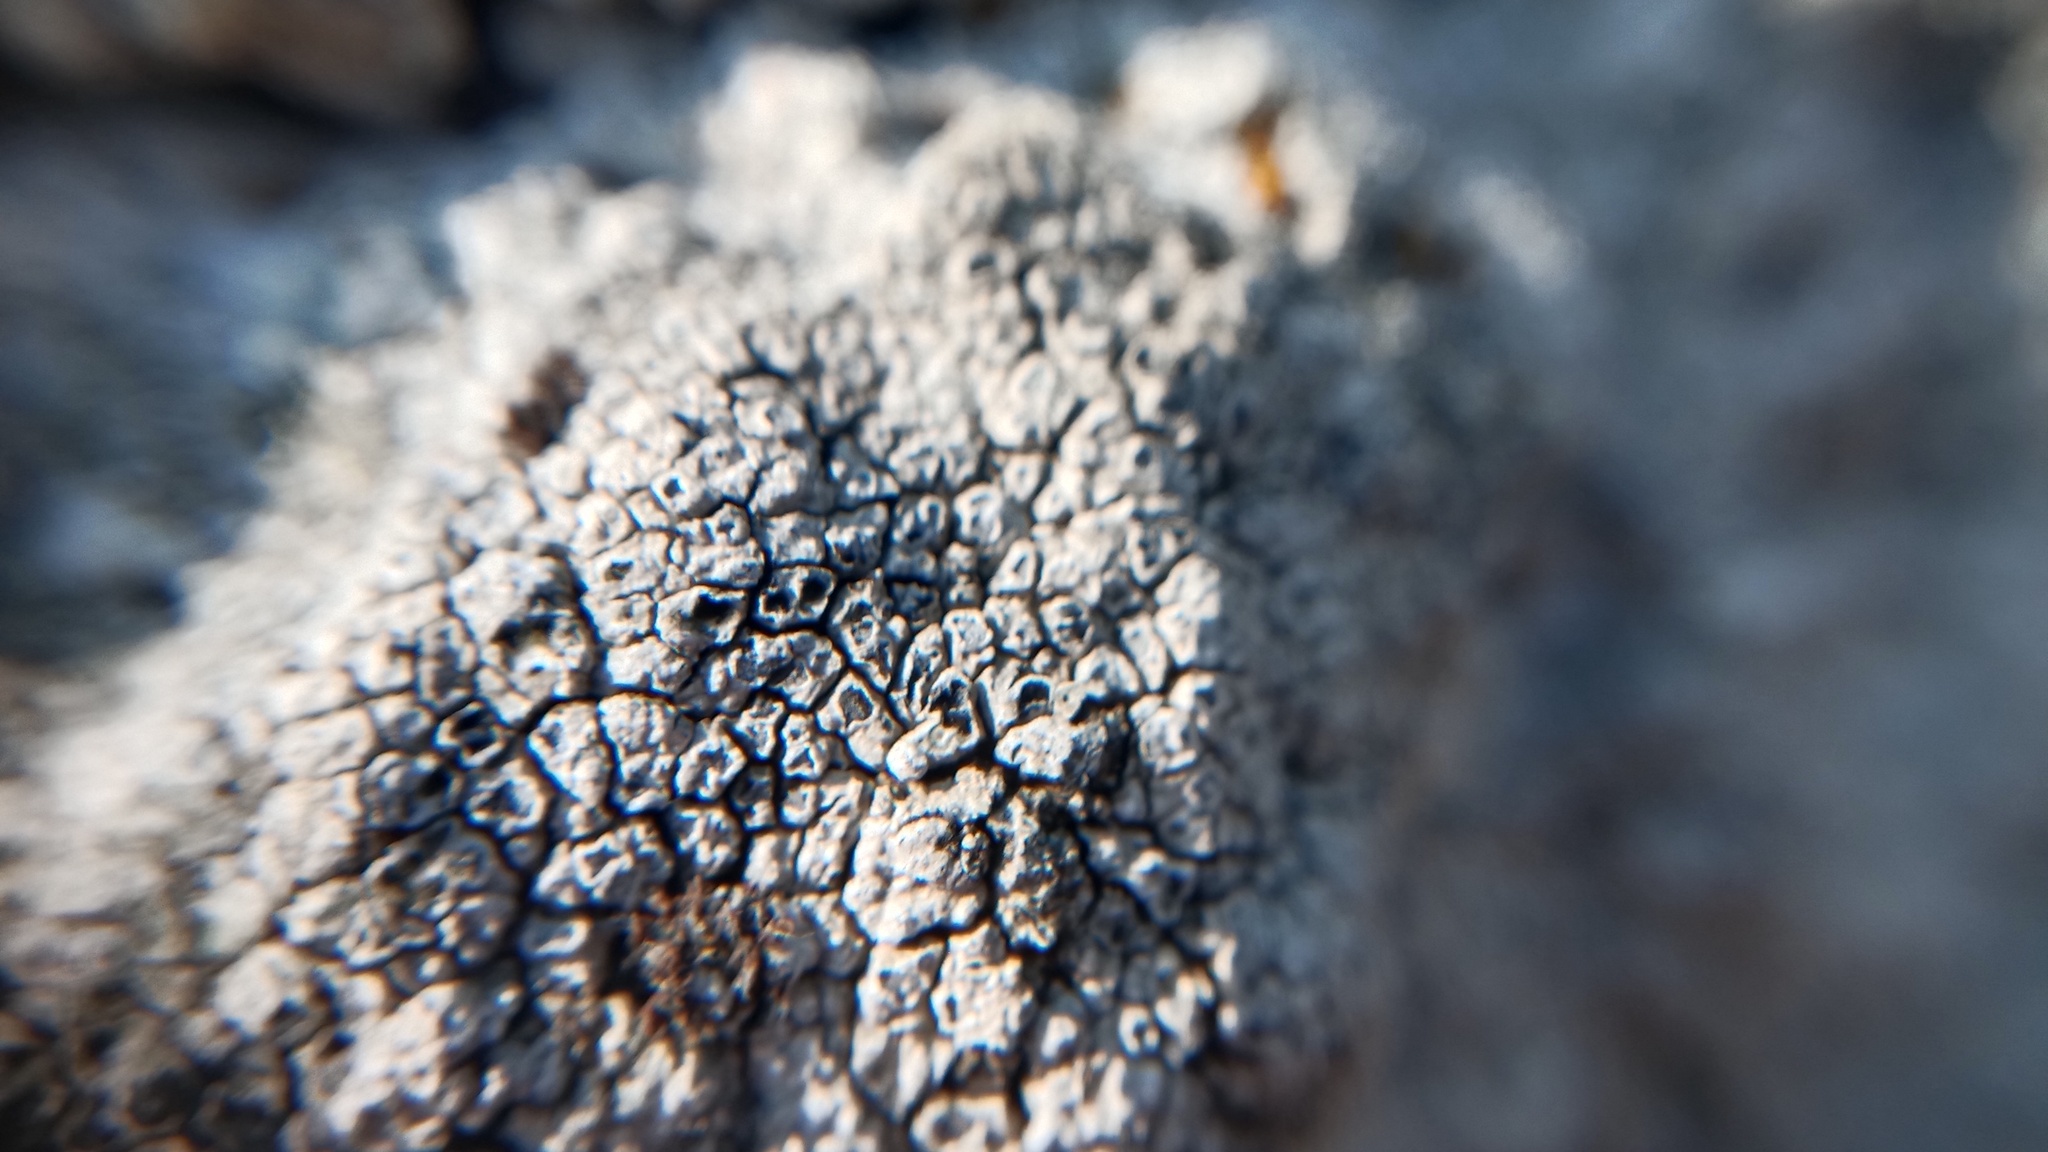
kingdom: Fungi
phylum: Ascomycota
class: Lecanoromycetes
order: Pertusariales
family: Megasporaceae
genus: Circinaria
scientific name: Circinaria calcarea
